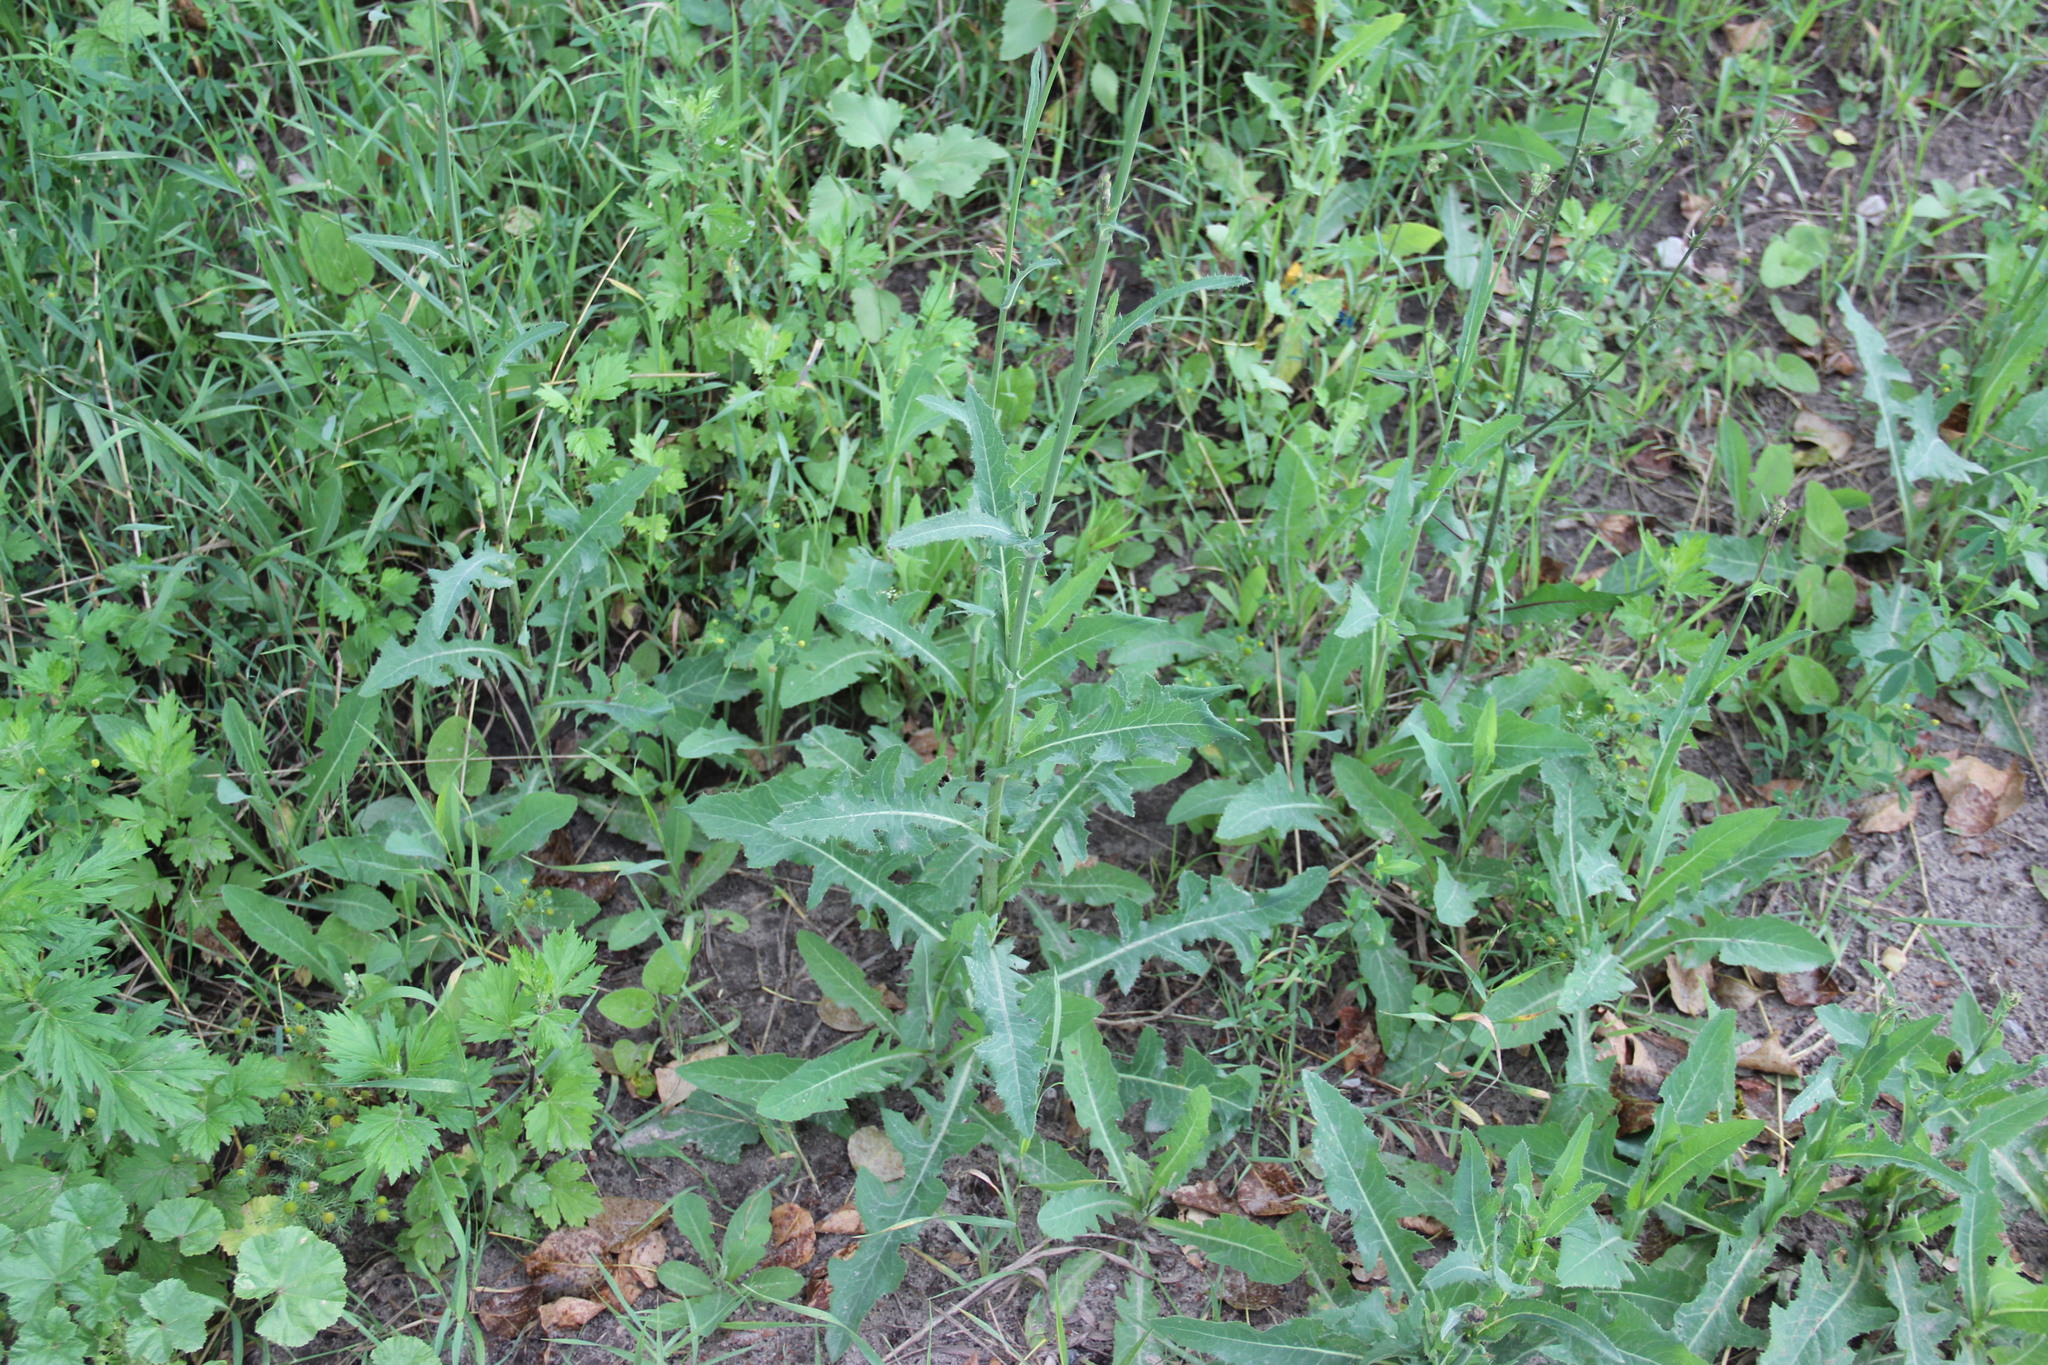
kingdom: Plantae
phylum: Tracheophyta
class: Magnoliopsida
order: Asterales
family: Asteraceae
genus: Sonchus
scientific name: Sonchus arvensis
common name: Perennial sow-thistle
